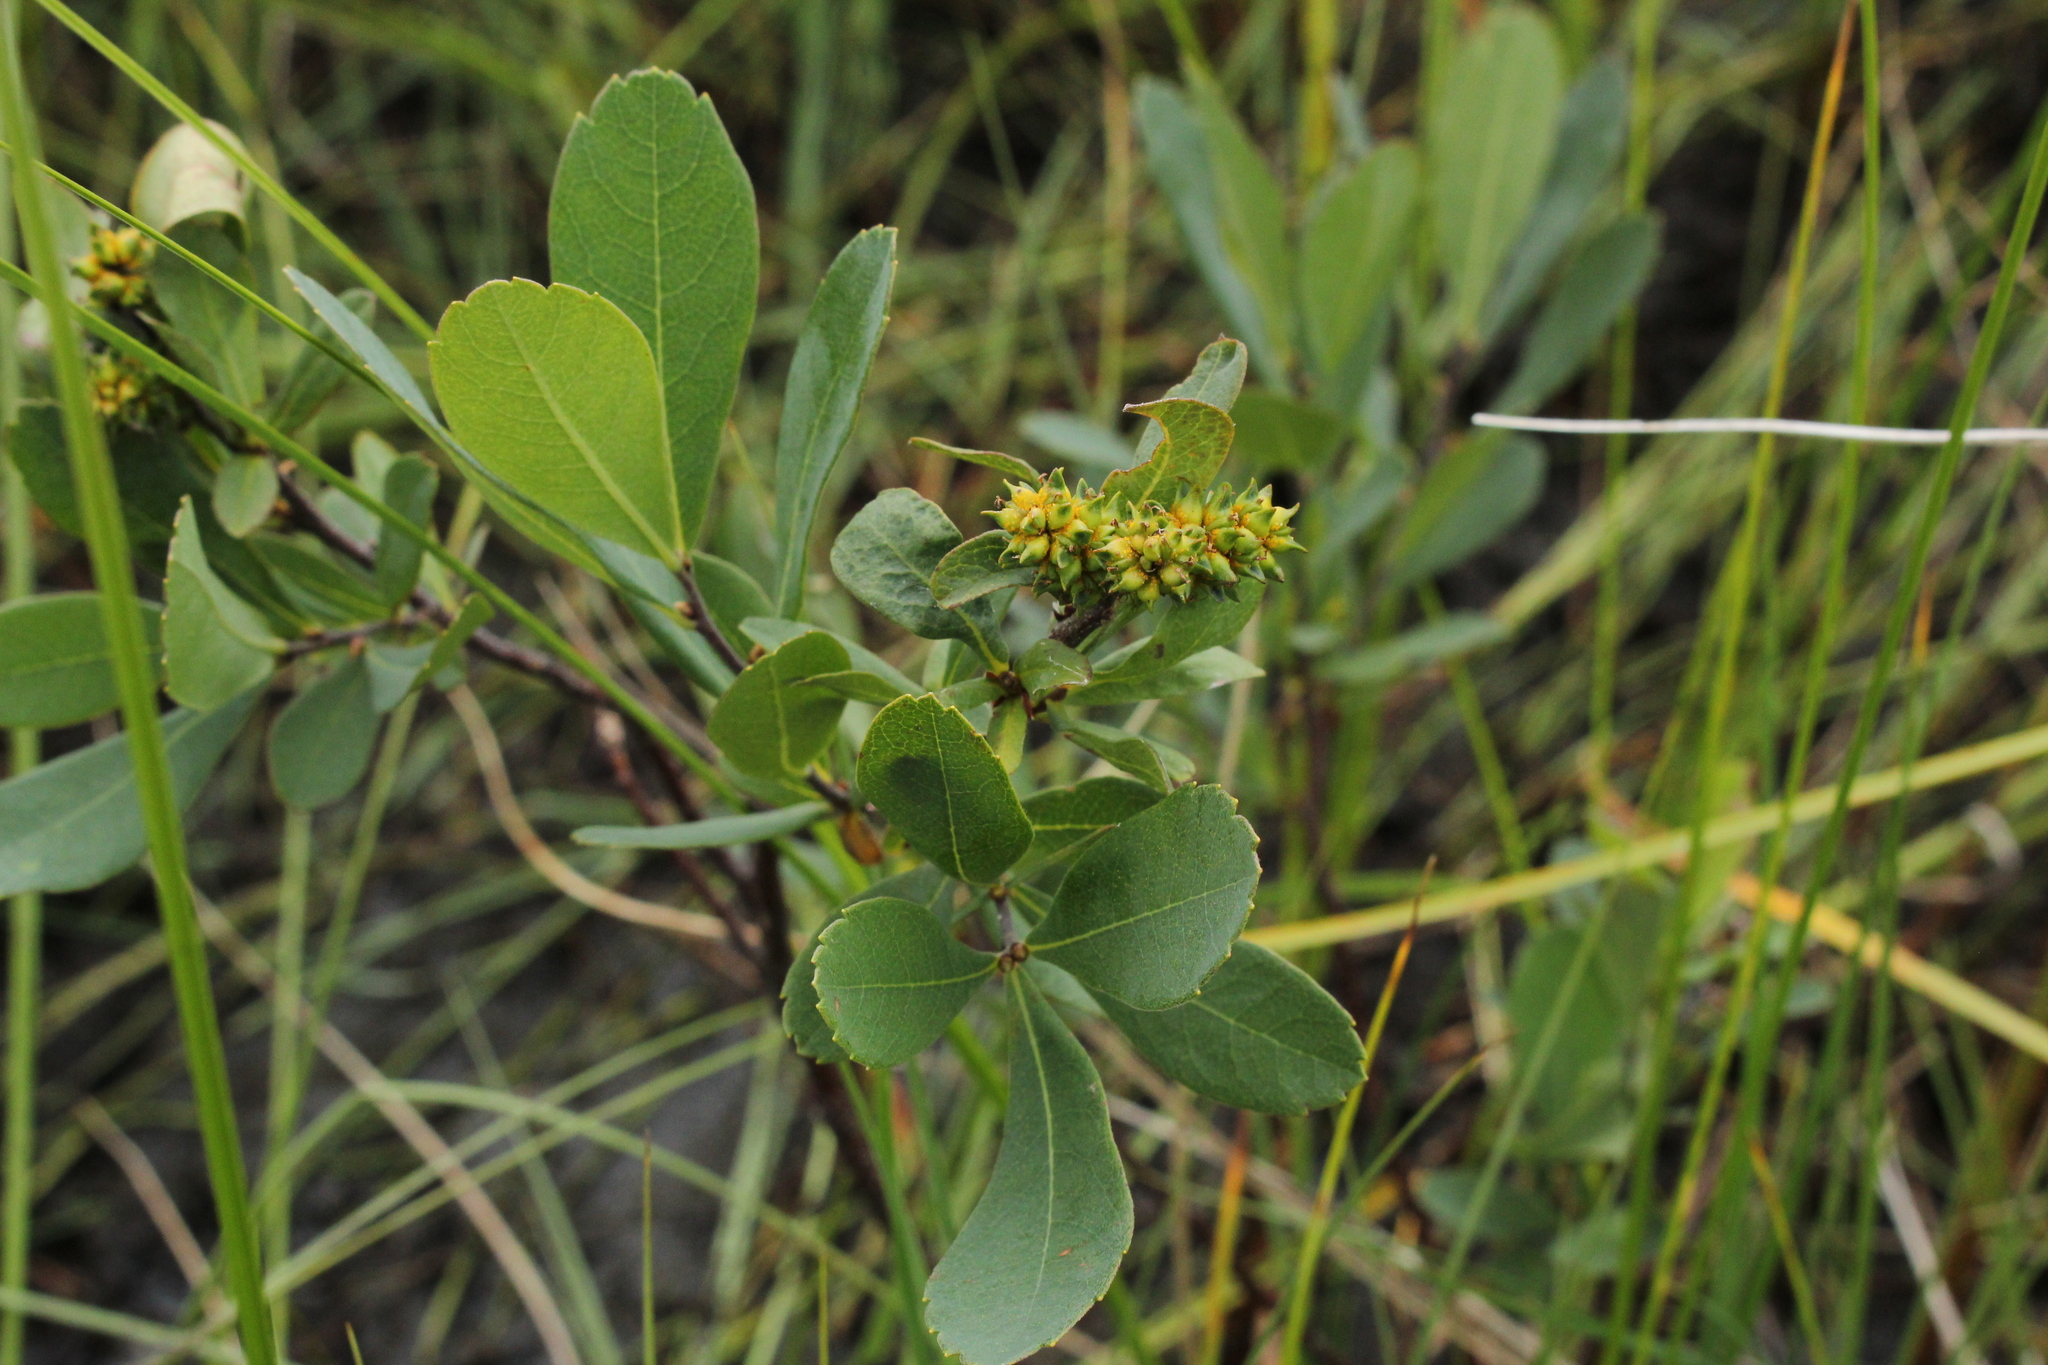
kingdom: Plantae
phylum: Tracheophyta
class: Magnoliopsida
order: Fagales
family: Myricaceae
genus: Myrica
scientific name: Myrica gale
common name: Sweet gale
